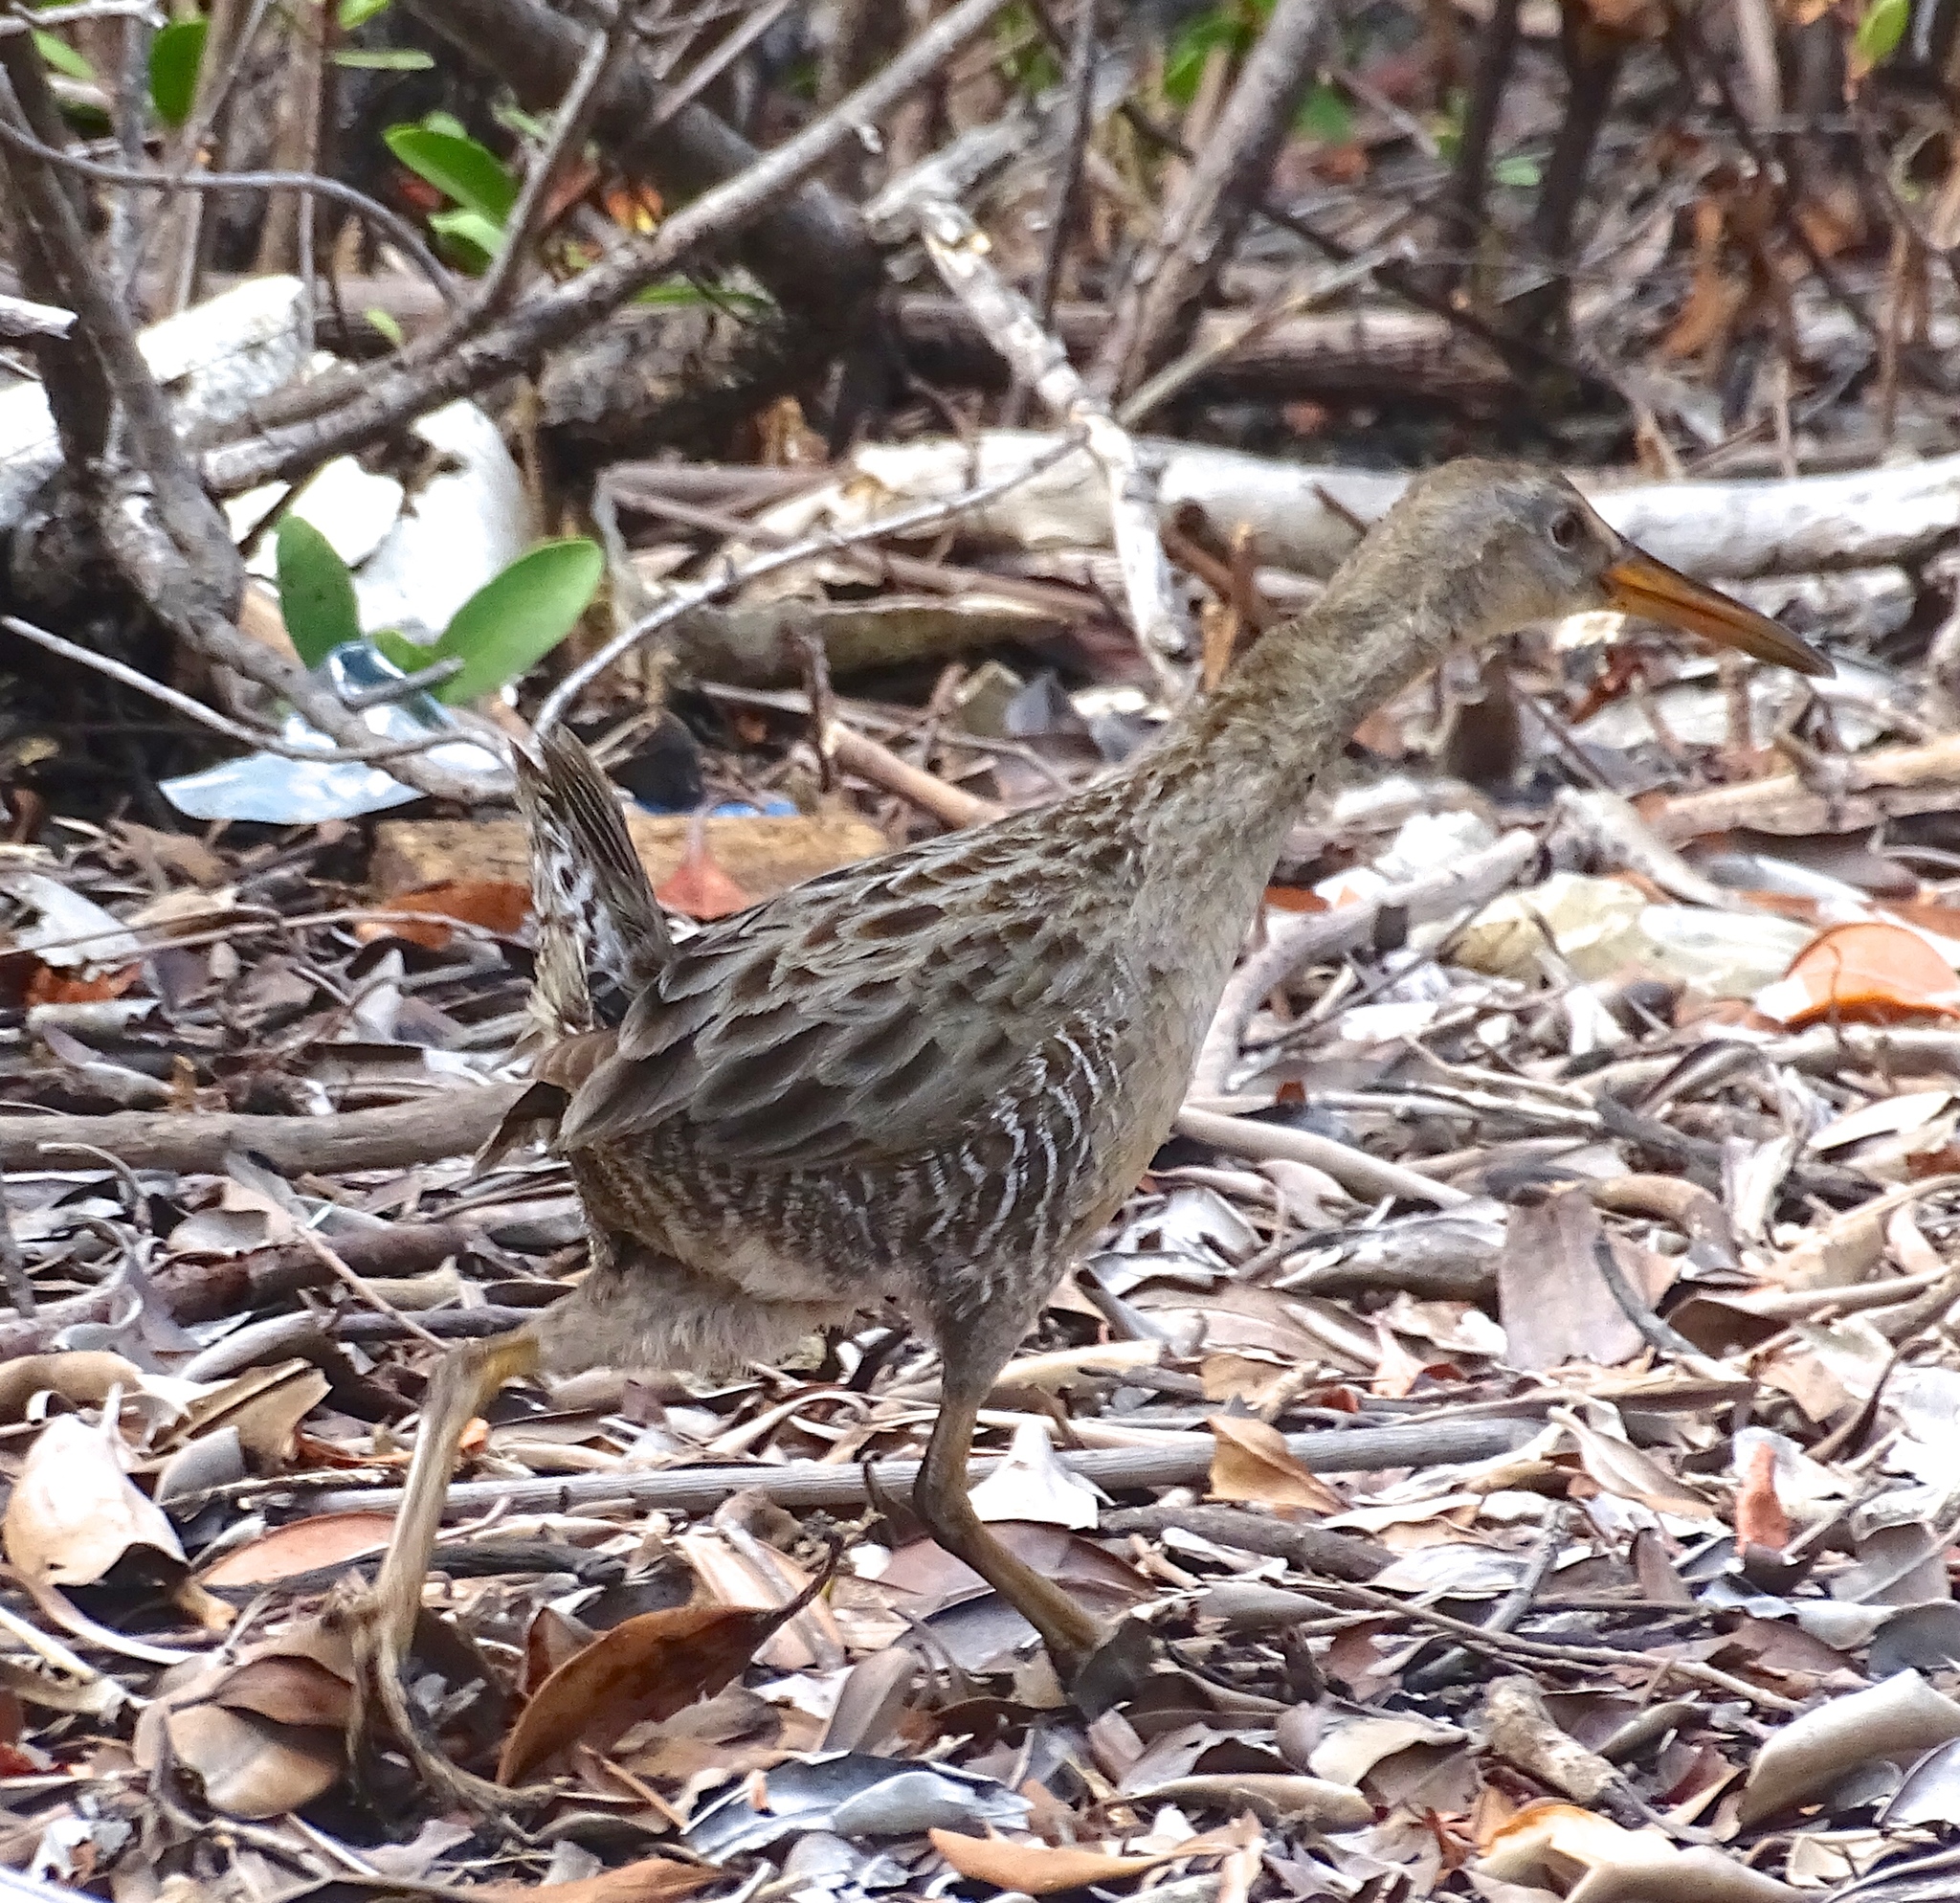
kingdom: Animalia
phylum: Chordata
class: Aves
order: Gruiformes
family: Rallidae
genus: Rallus
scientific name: Rallus crepitans
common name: Clapper rail
